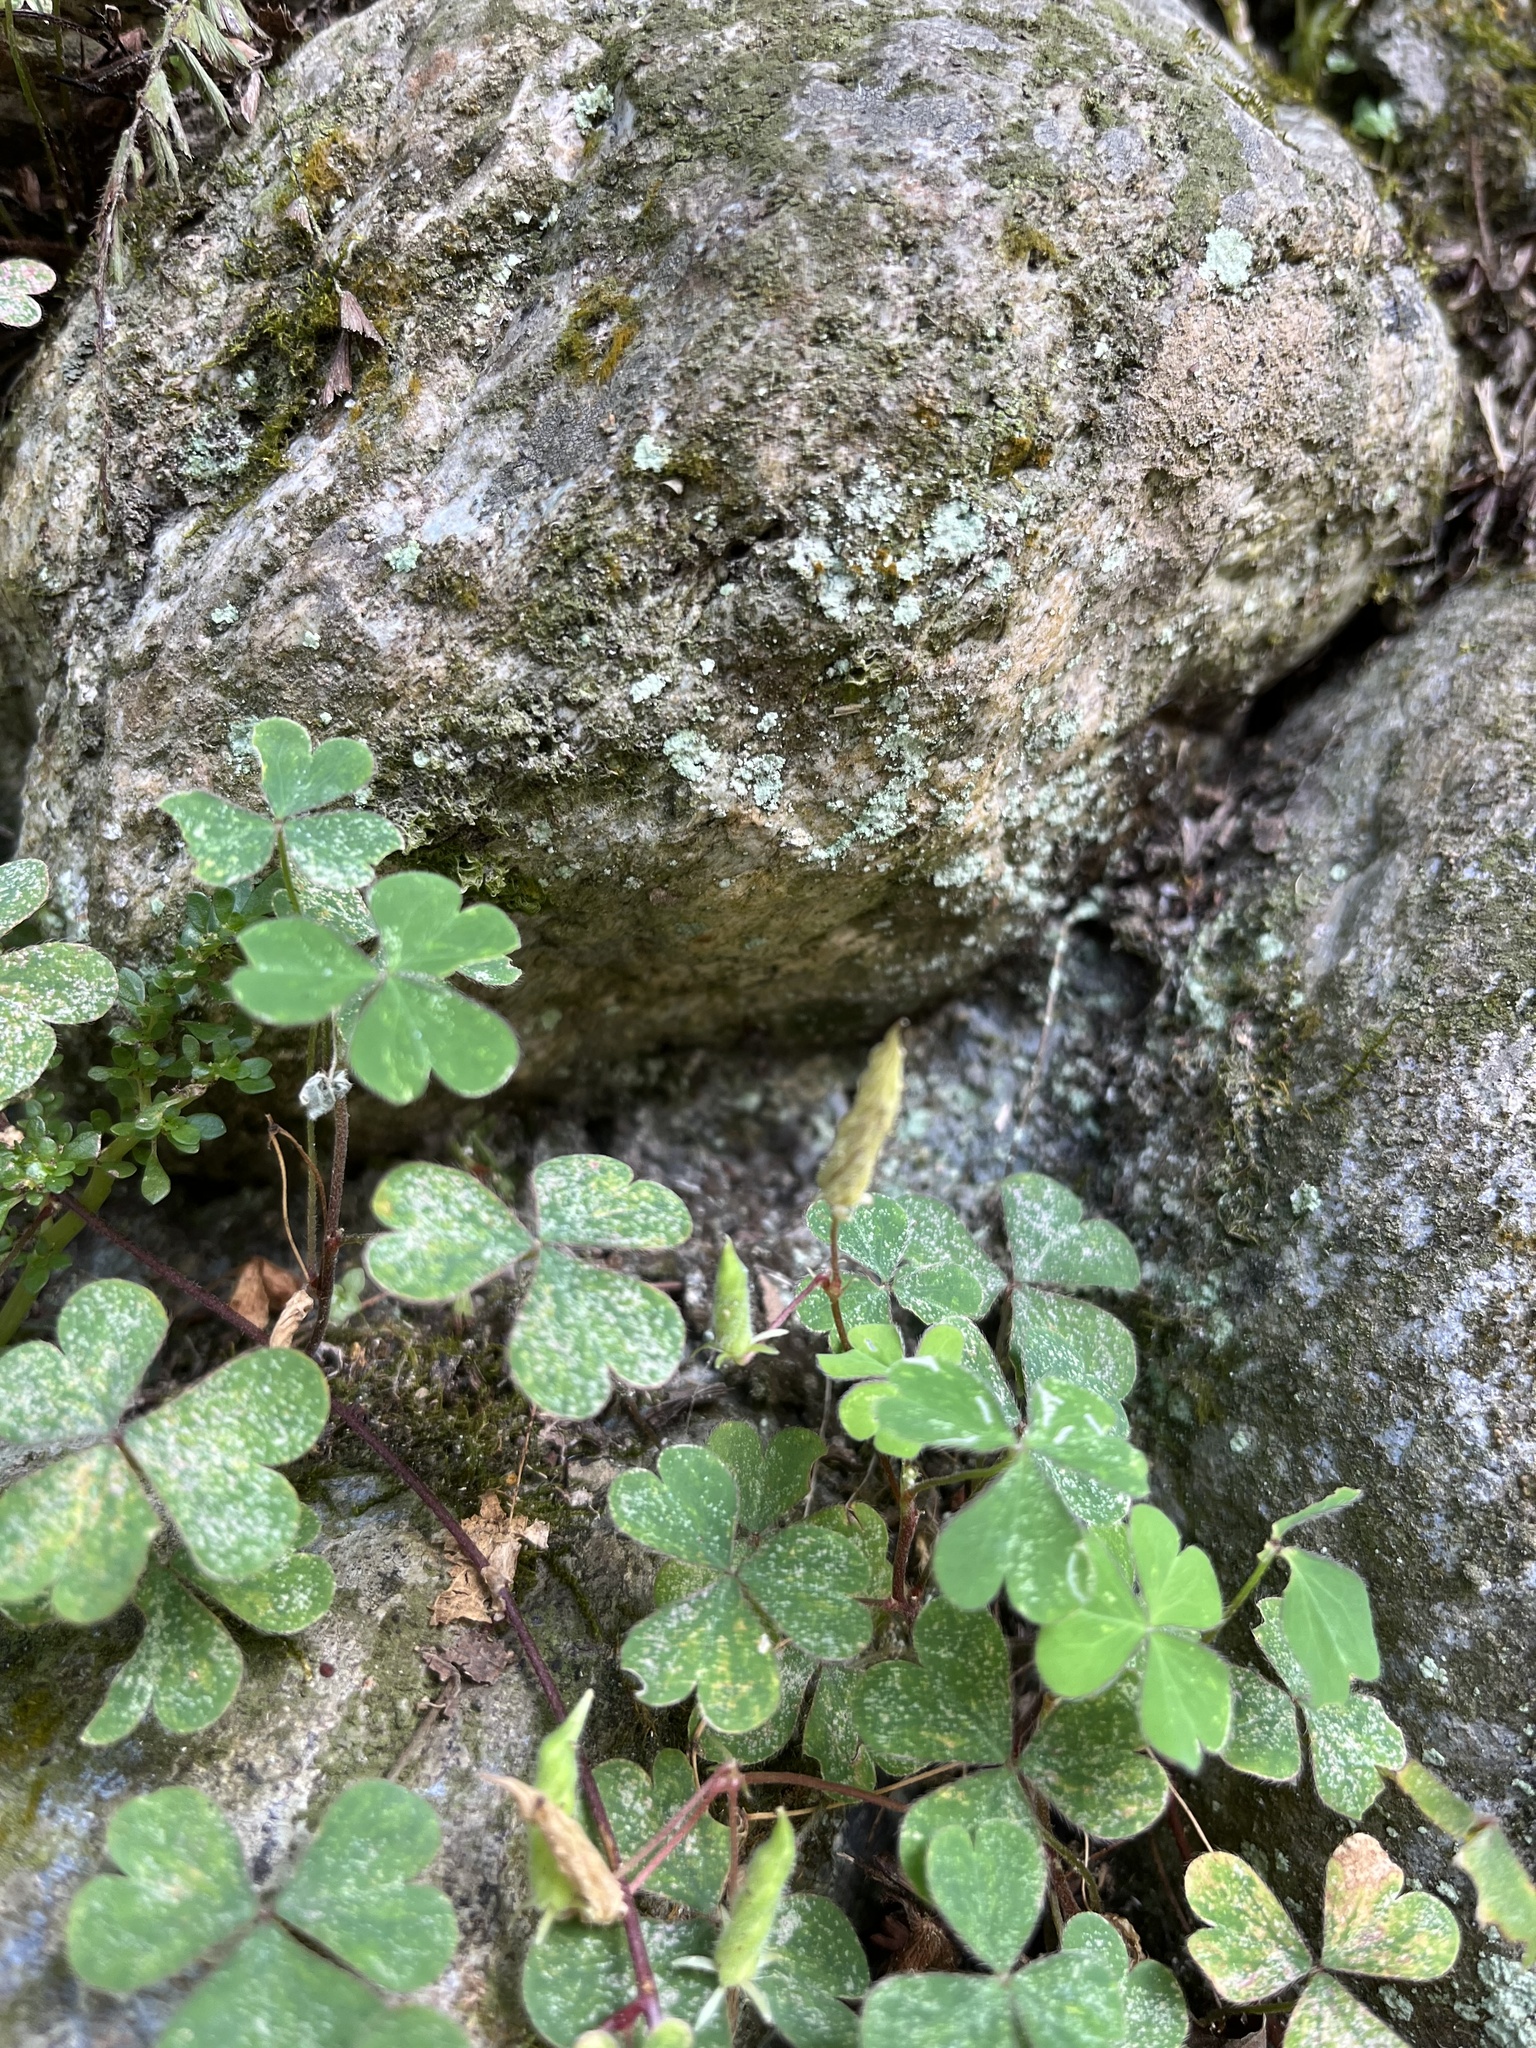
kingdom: Plantae
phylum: Tracheophyta
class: Magnoliopsida
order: Oxalidales
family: Oxalidaceae
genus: Oxalis
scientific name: Oxalis corniculata
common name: Procumbent yellow-sorrel
